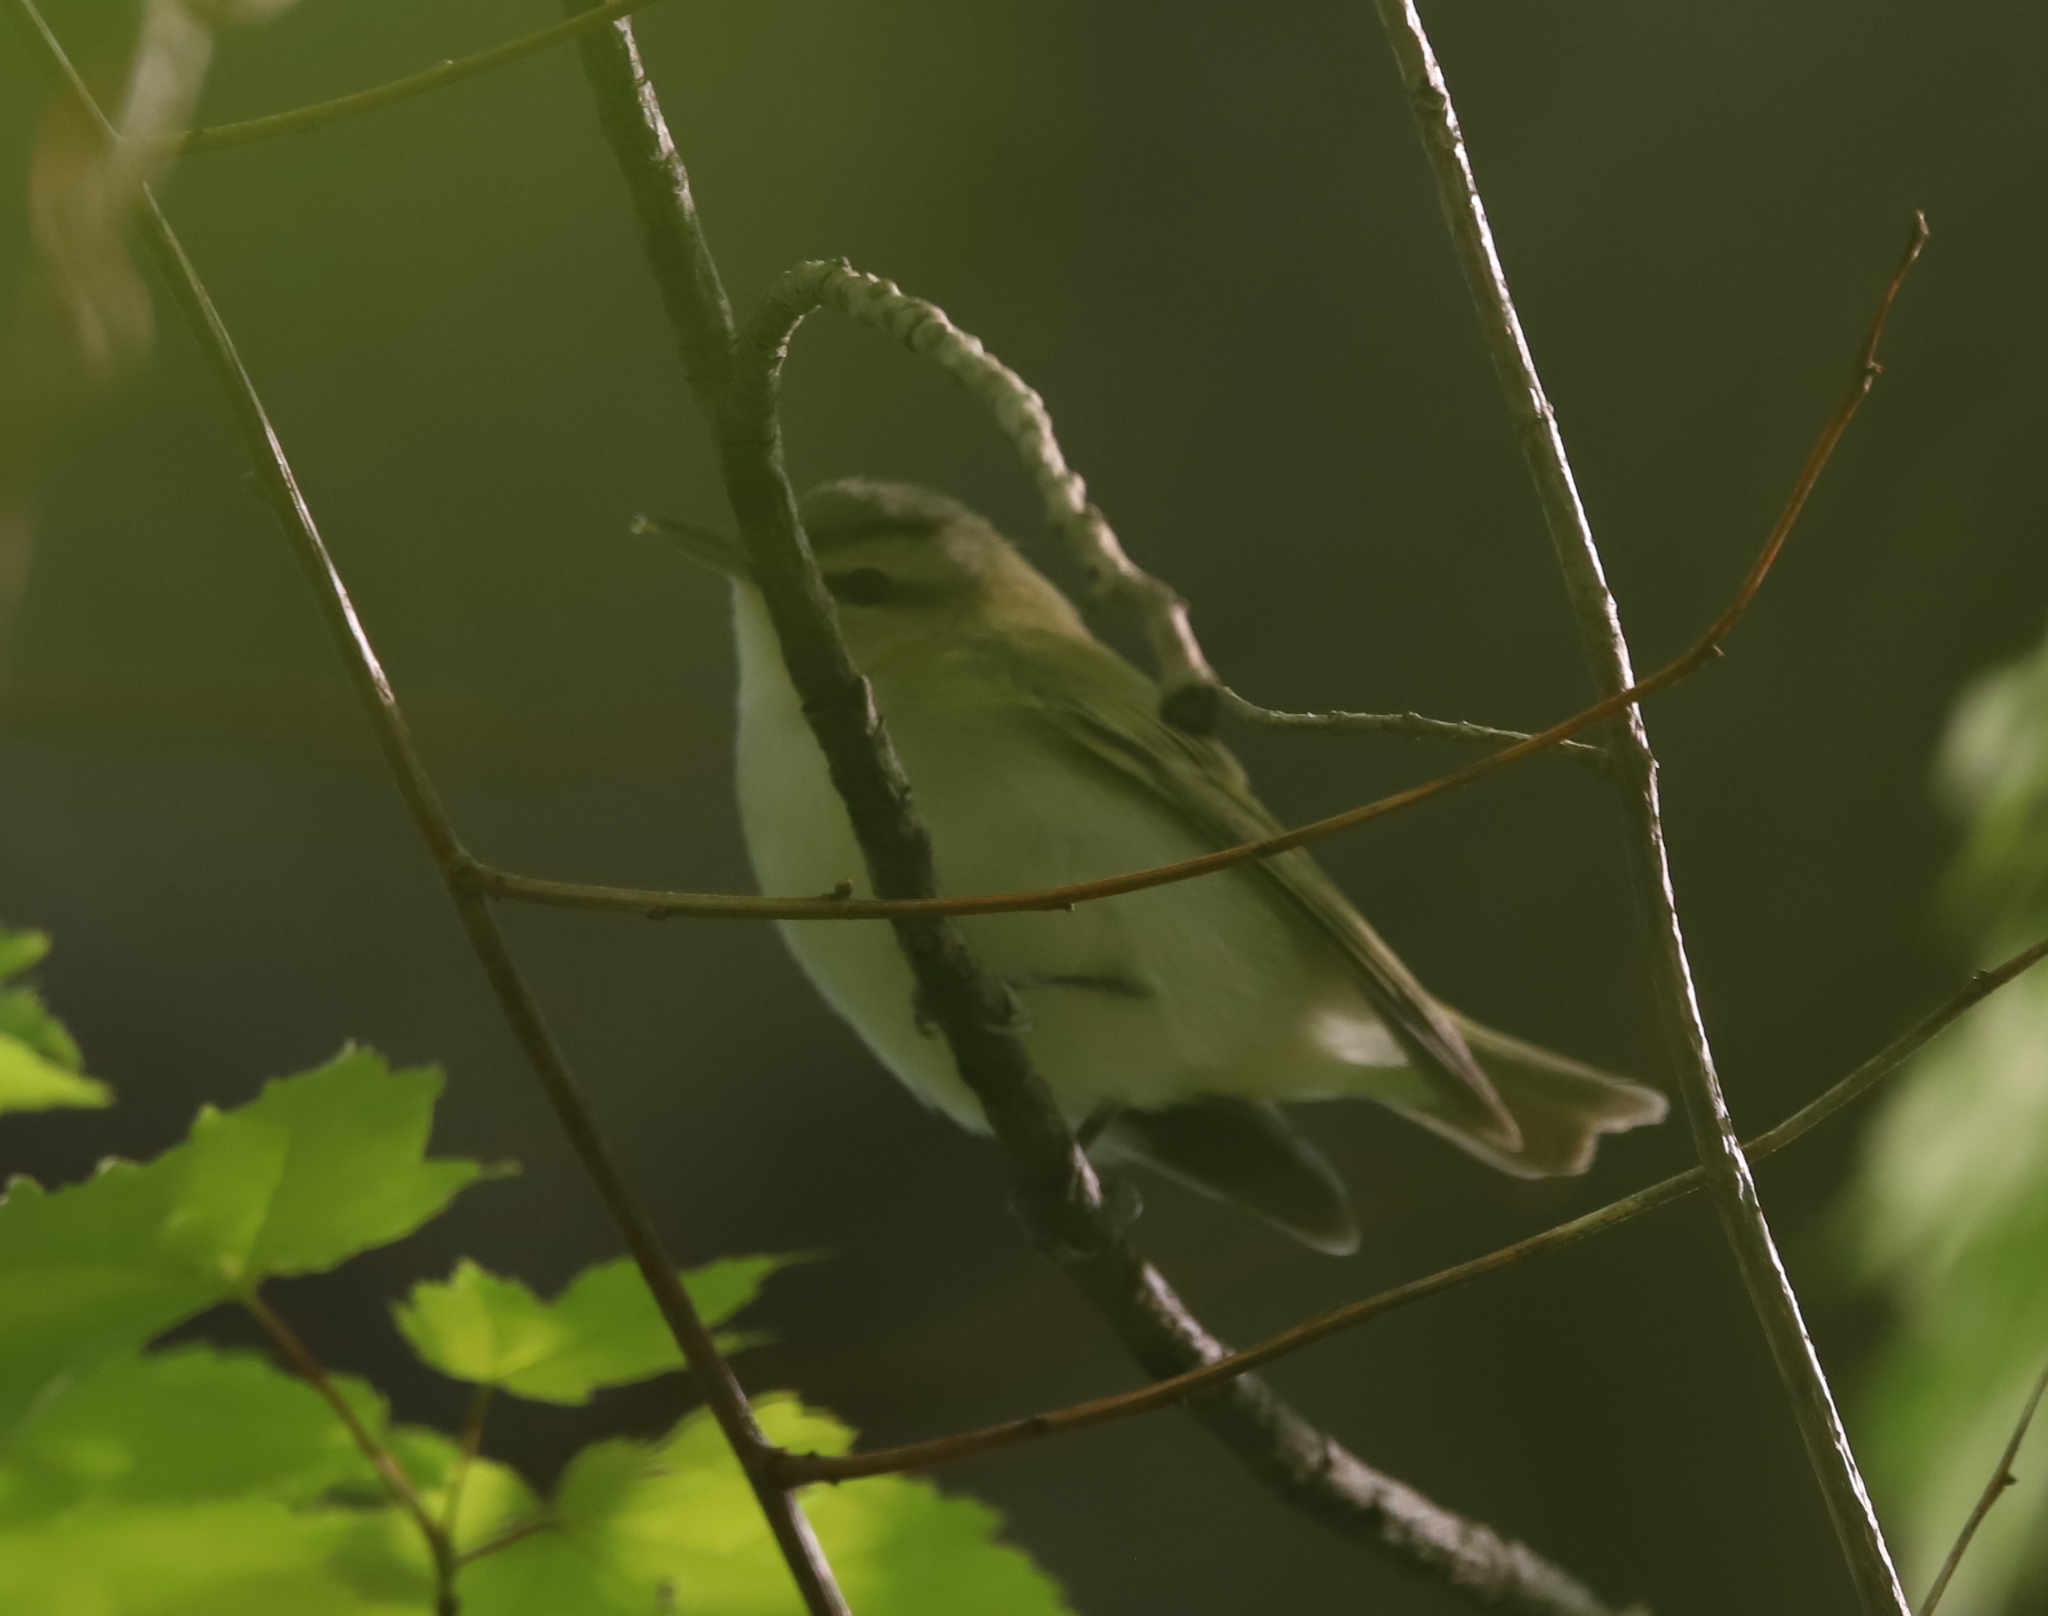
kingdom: Animalia
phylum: Chordata
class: Aves
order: Passeriformes
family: Vireonidae
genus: Vireo
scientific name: Vireo olivaceus
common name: Red-eyed vireo
